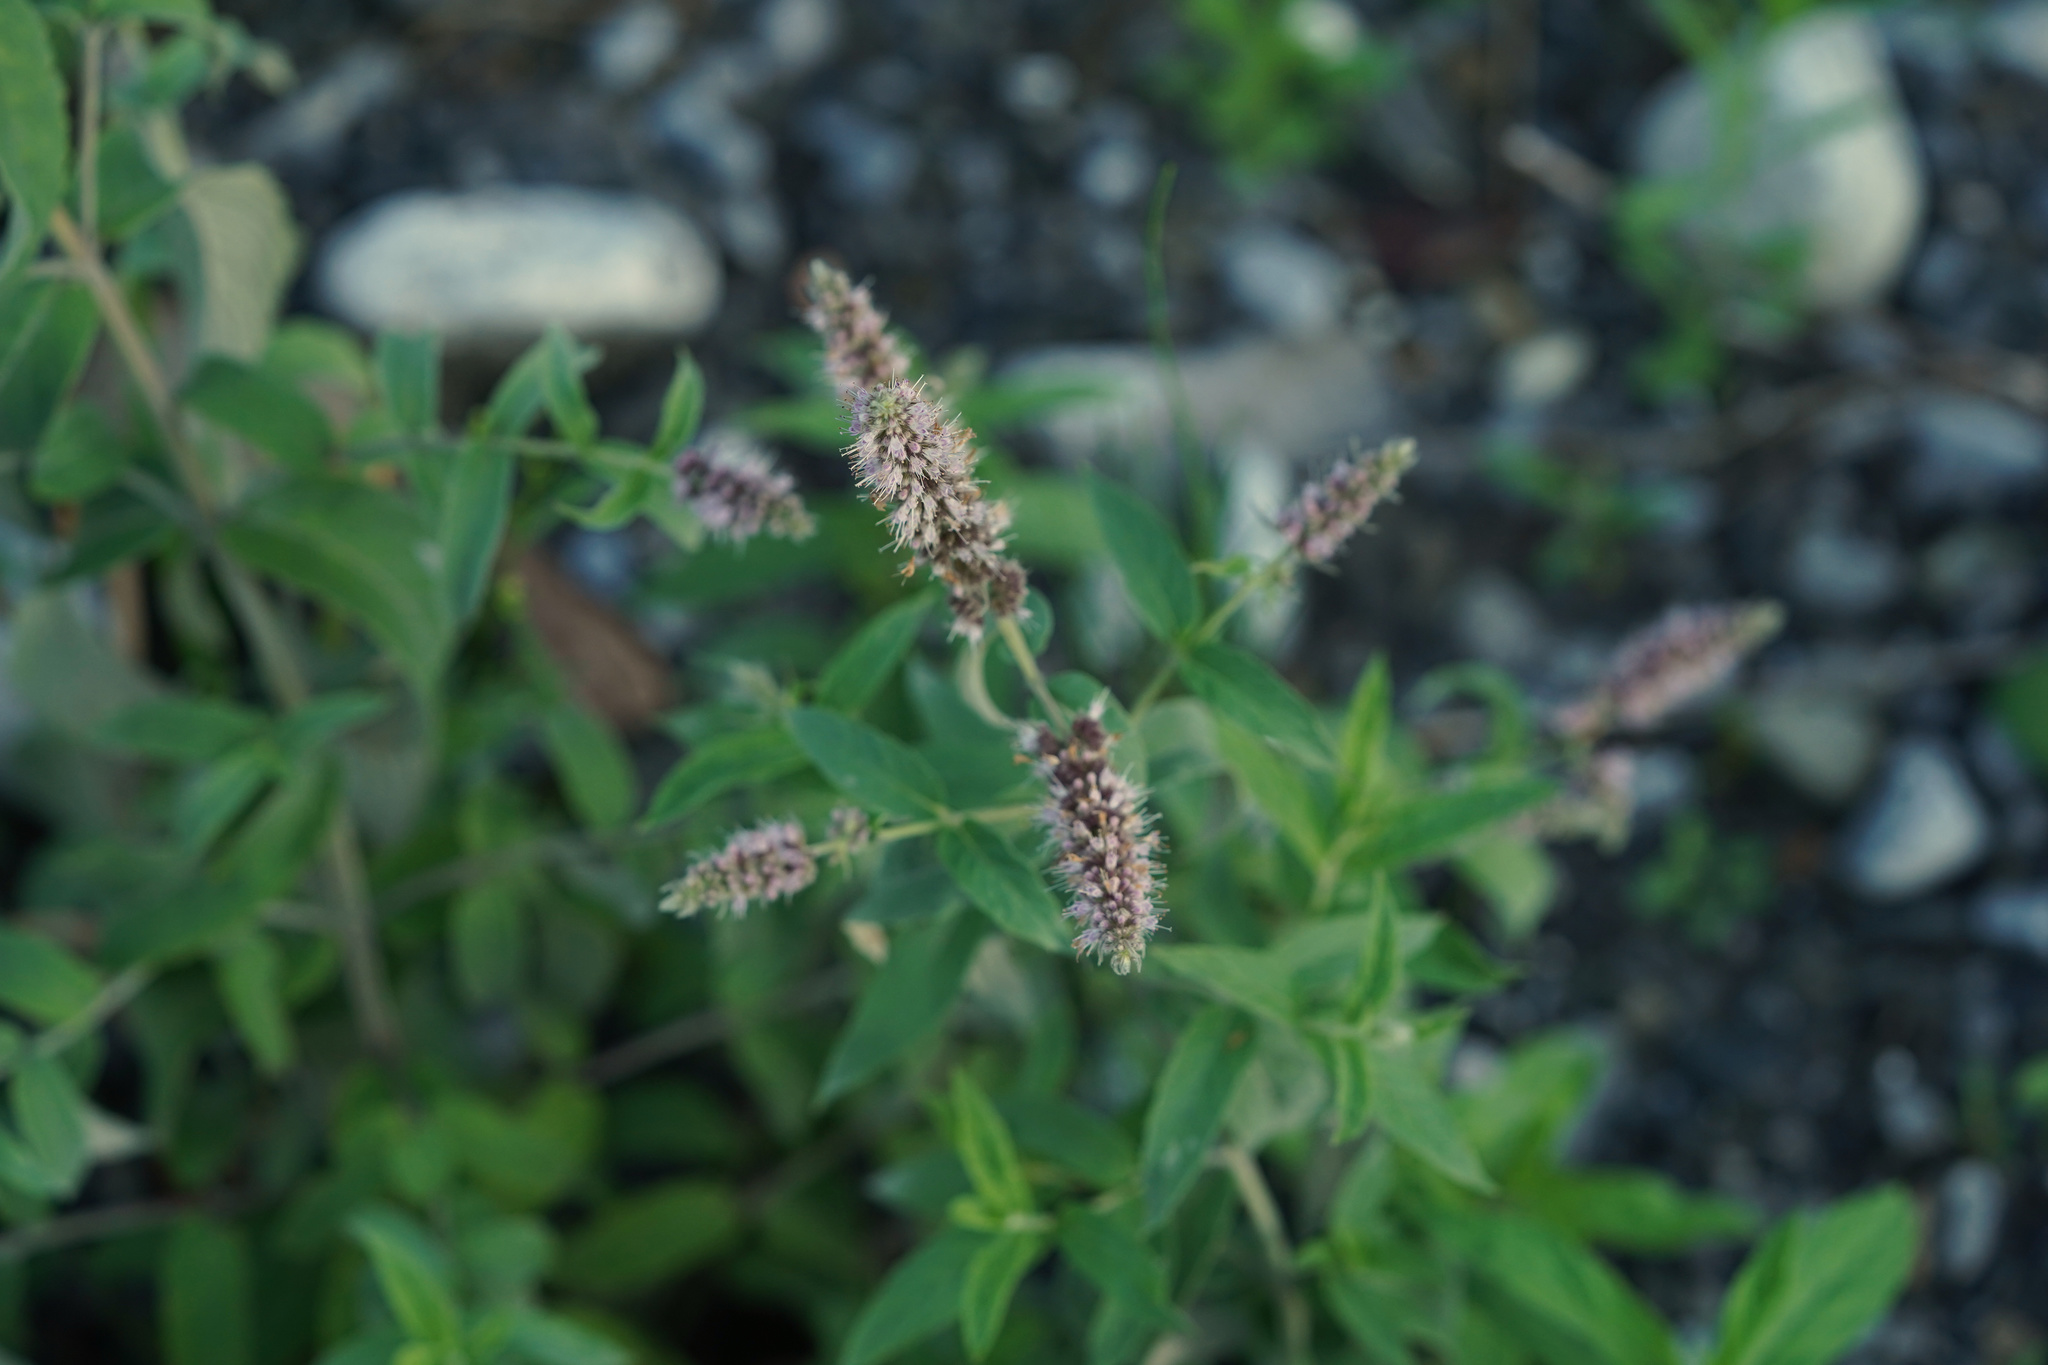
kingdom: Plantae
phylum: Tracheophyta
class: Magnoliopsida
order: Lamiales
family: Lamiaceae
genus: Mentha
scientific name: Mentha longifolia
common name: Horse mint
